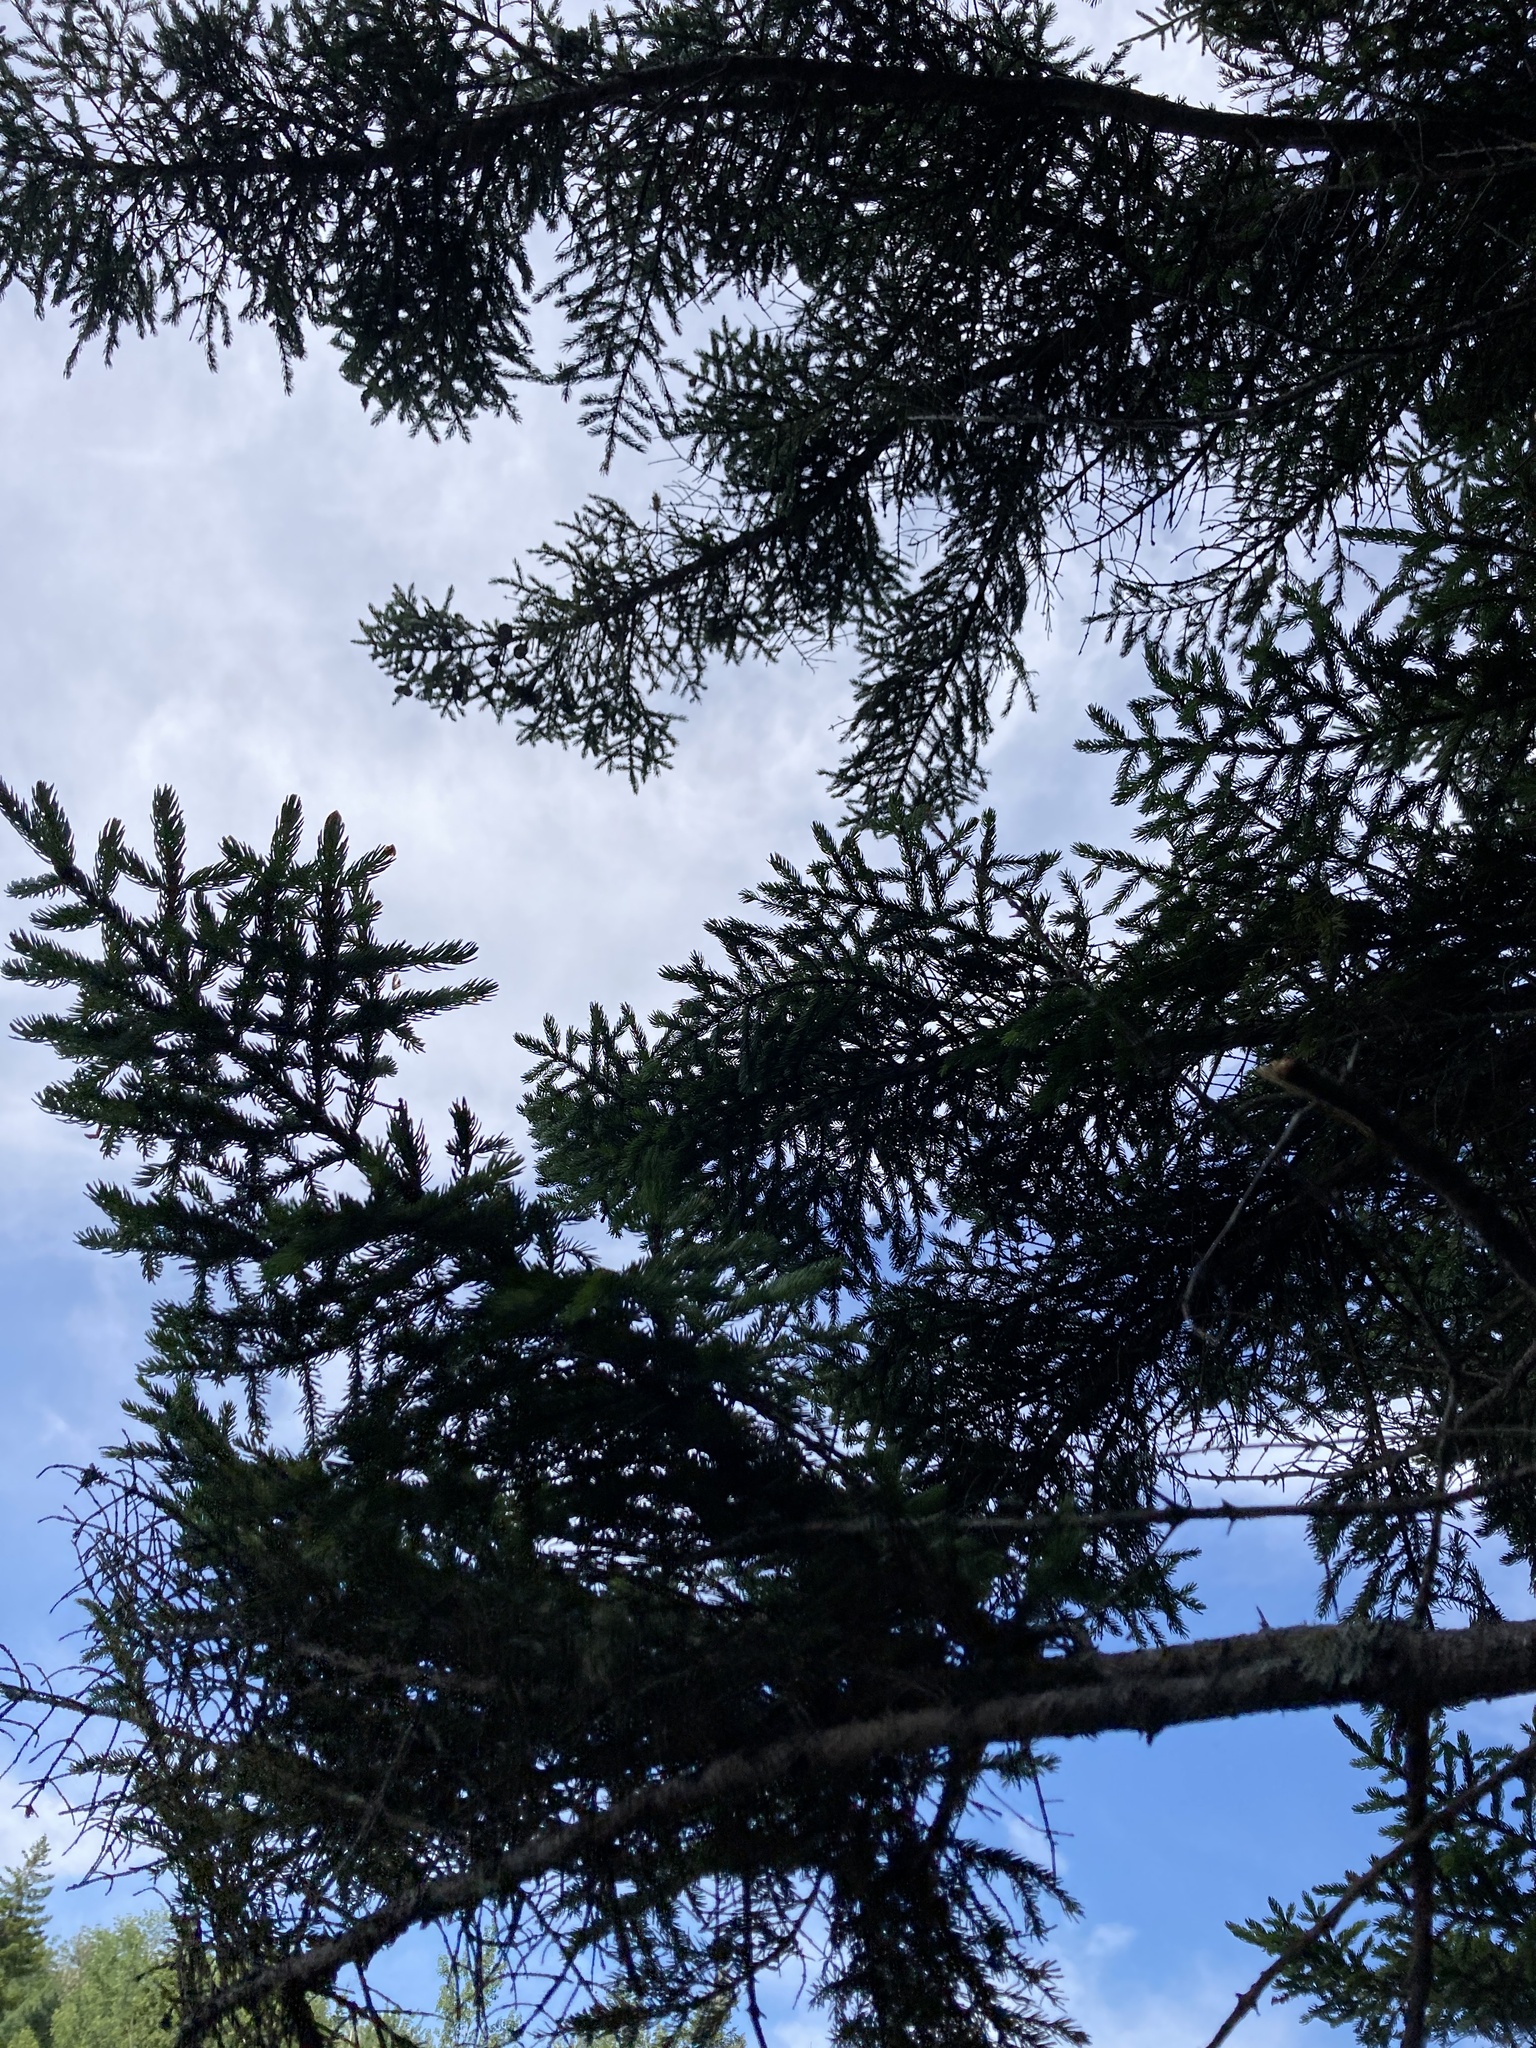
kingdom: Plantae
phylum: Tracheophyta
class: Pinopsida
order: Pinales
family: Pinaceae
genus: Picea
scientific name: Picea rubens
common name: Red spruce
